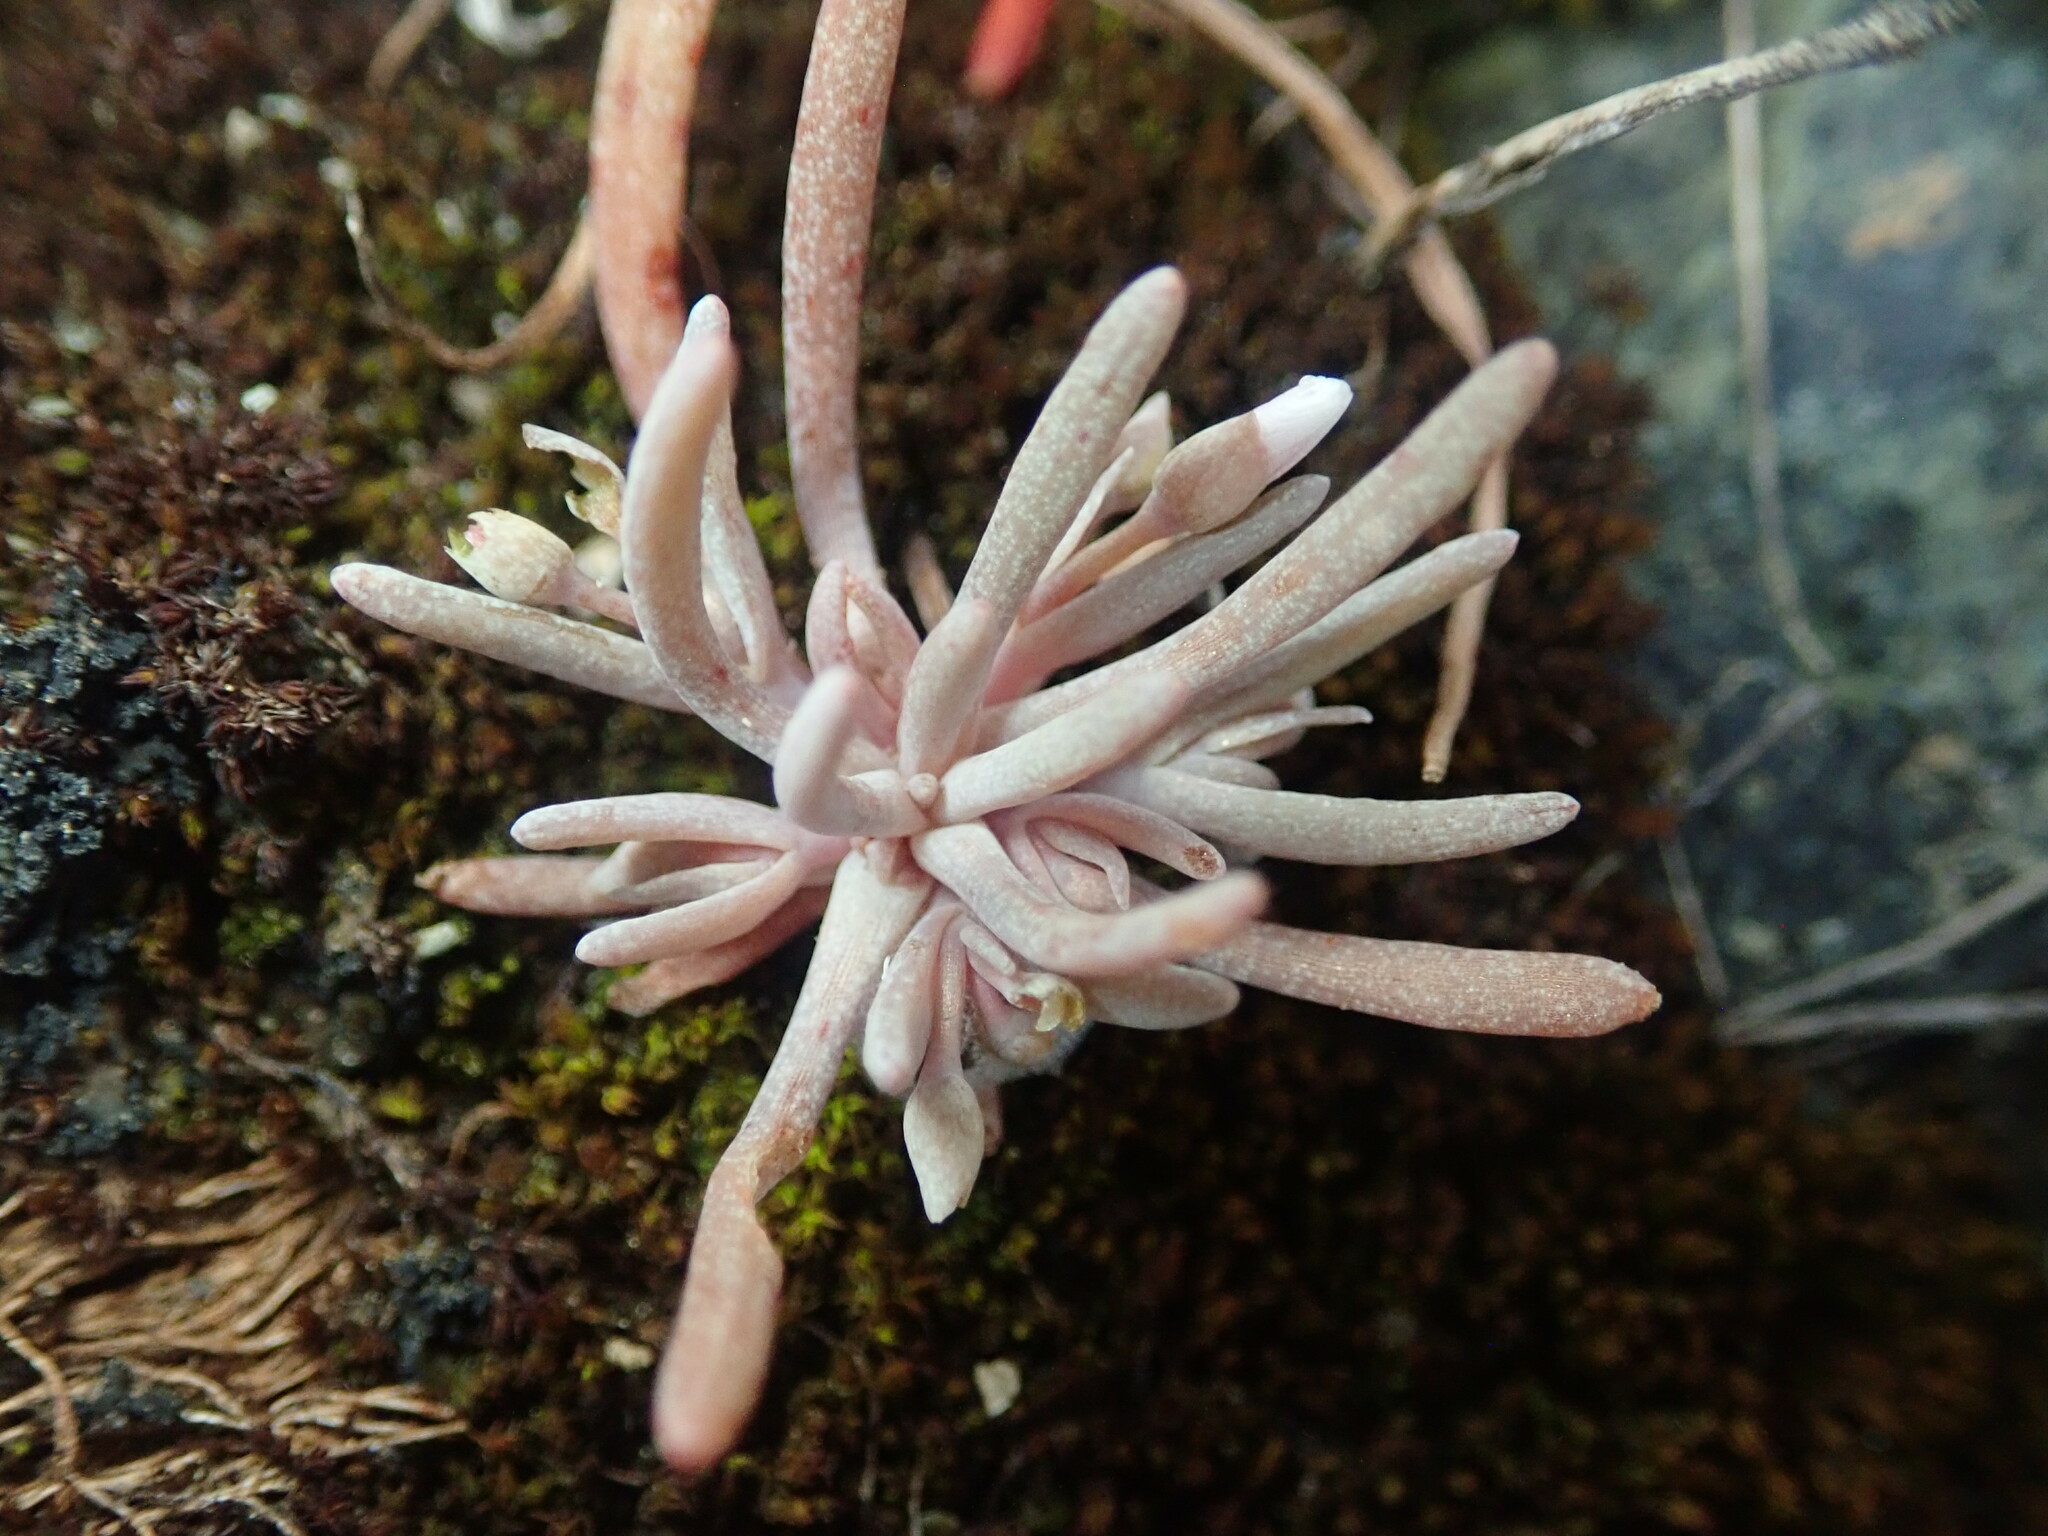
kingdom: Plantae
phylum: Tracheophyta
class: Magnoliopsida
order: Caryophyllales
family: Montiaceae
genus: Claytonia
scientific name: Claytonia exigua
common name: Pale spring beauty
